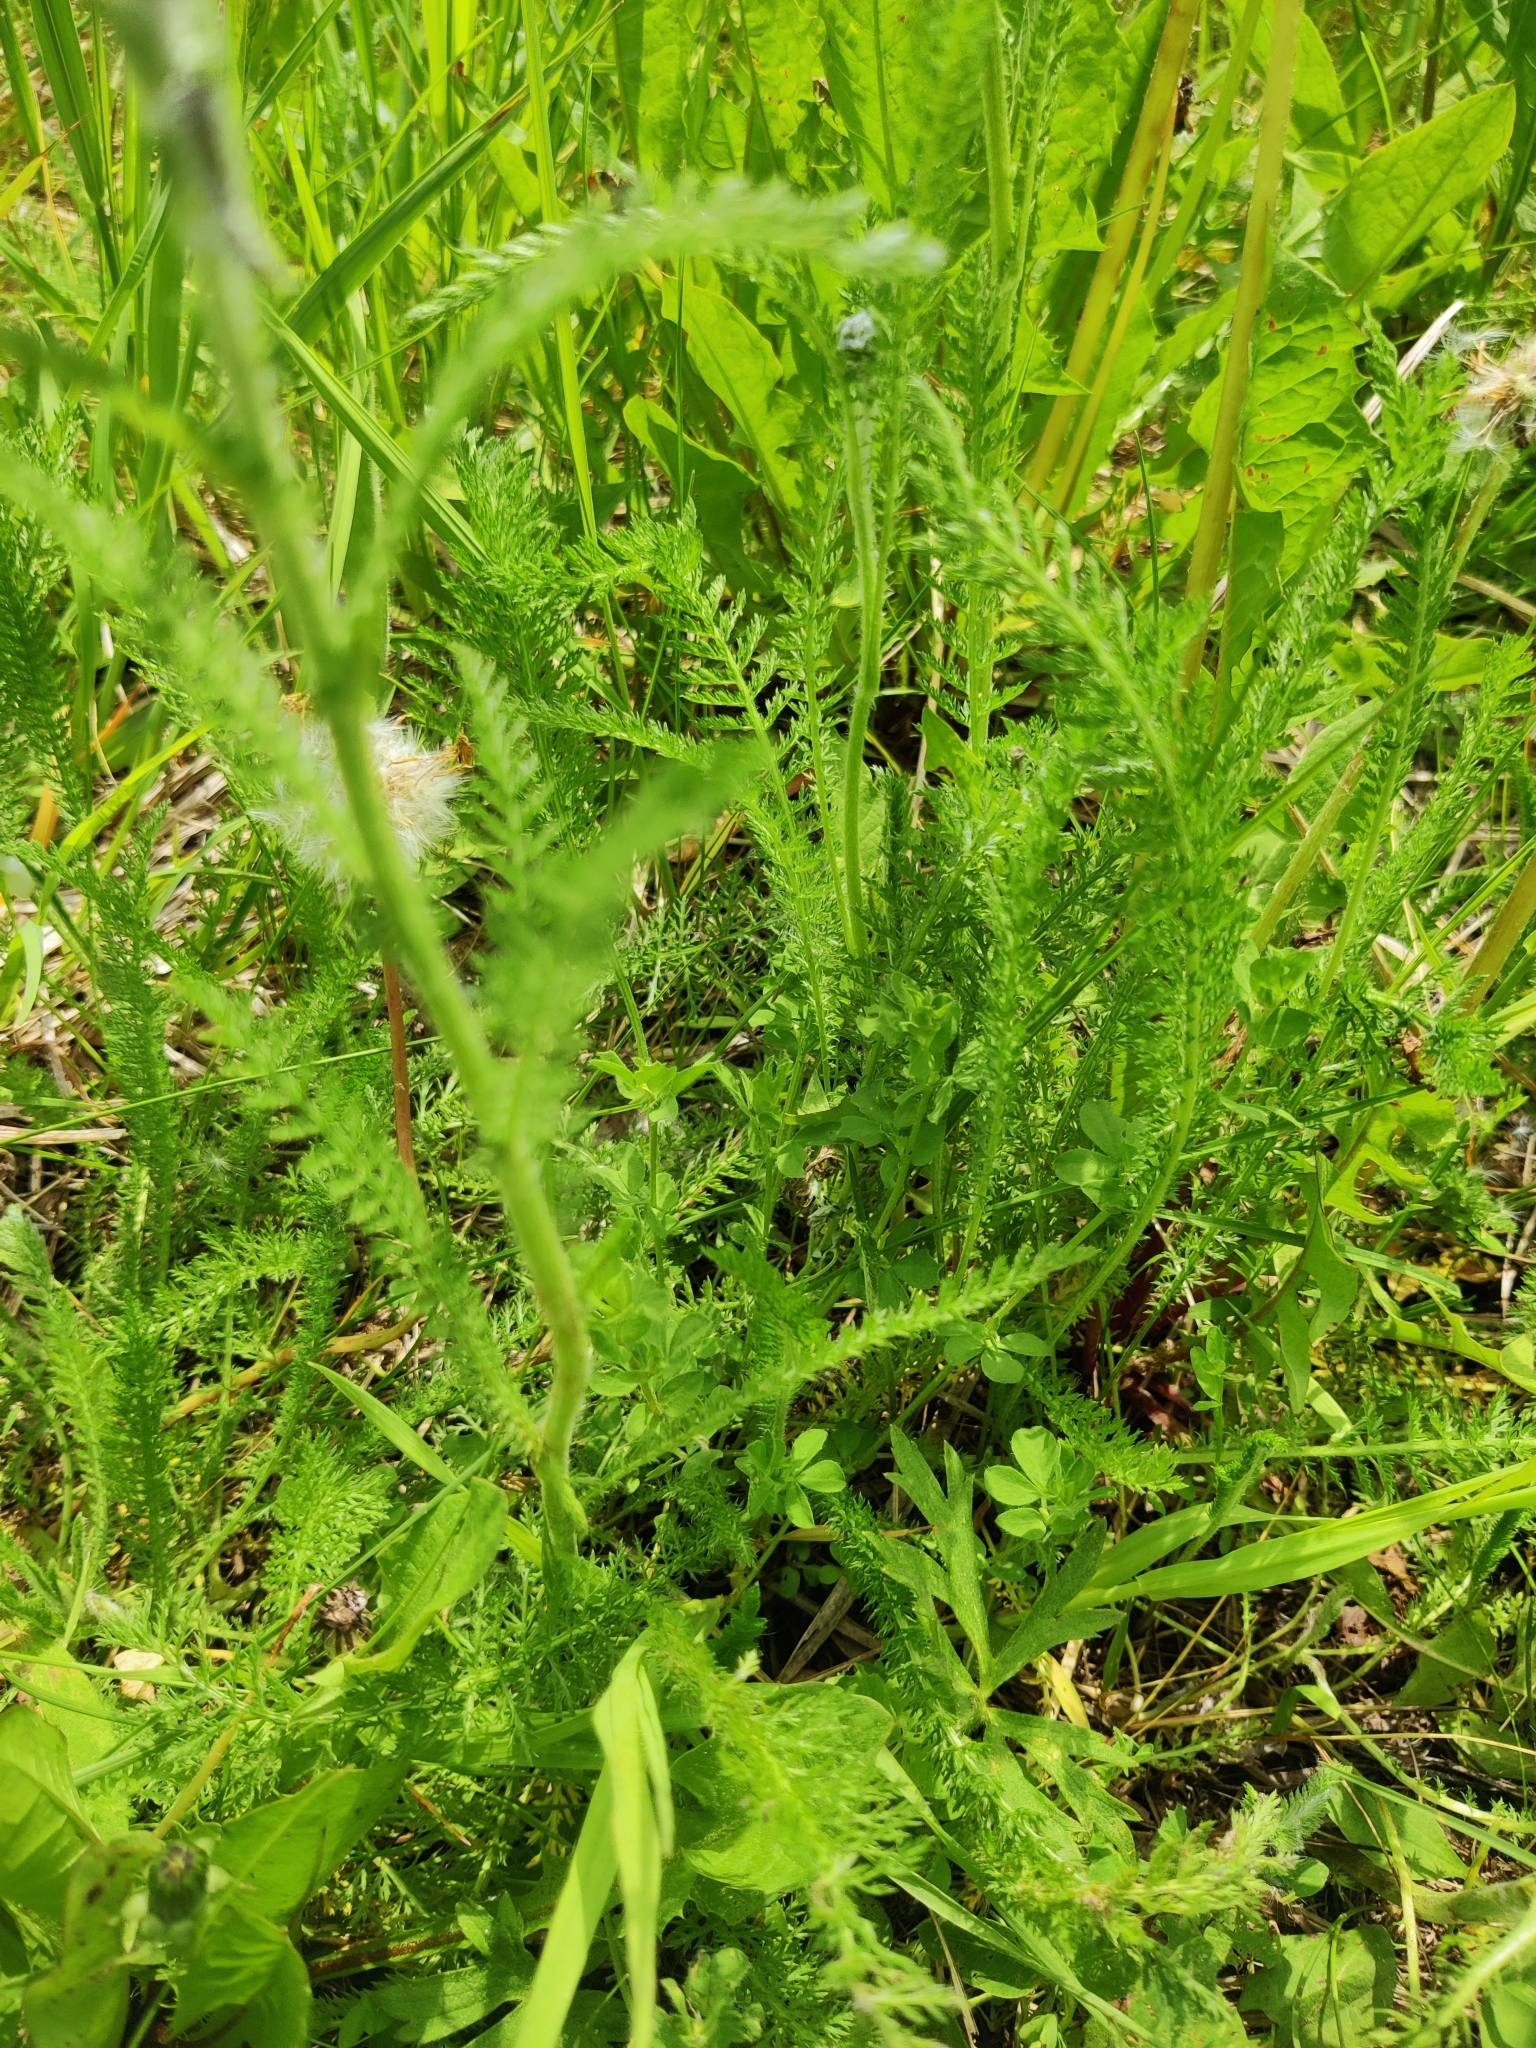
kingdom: Plantae
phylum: Tracheophyta
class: Magnoliopsida
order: Asterales
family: Asteraceae
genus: Achillea
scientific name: Achillea millefolium
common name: Yarrow
